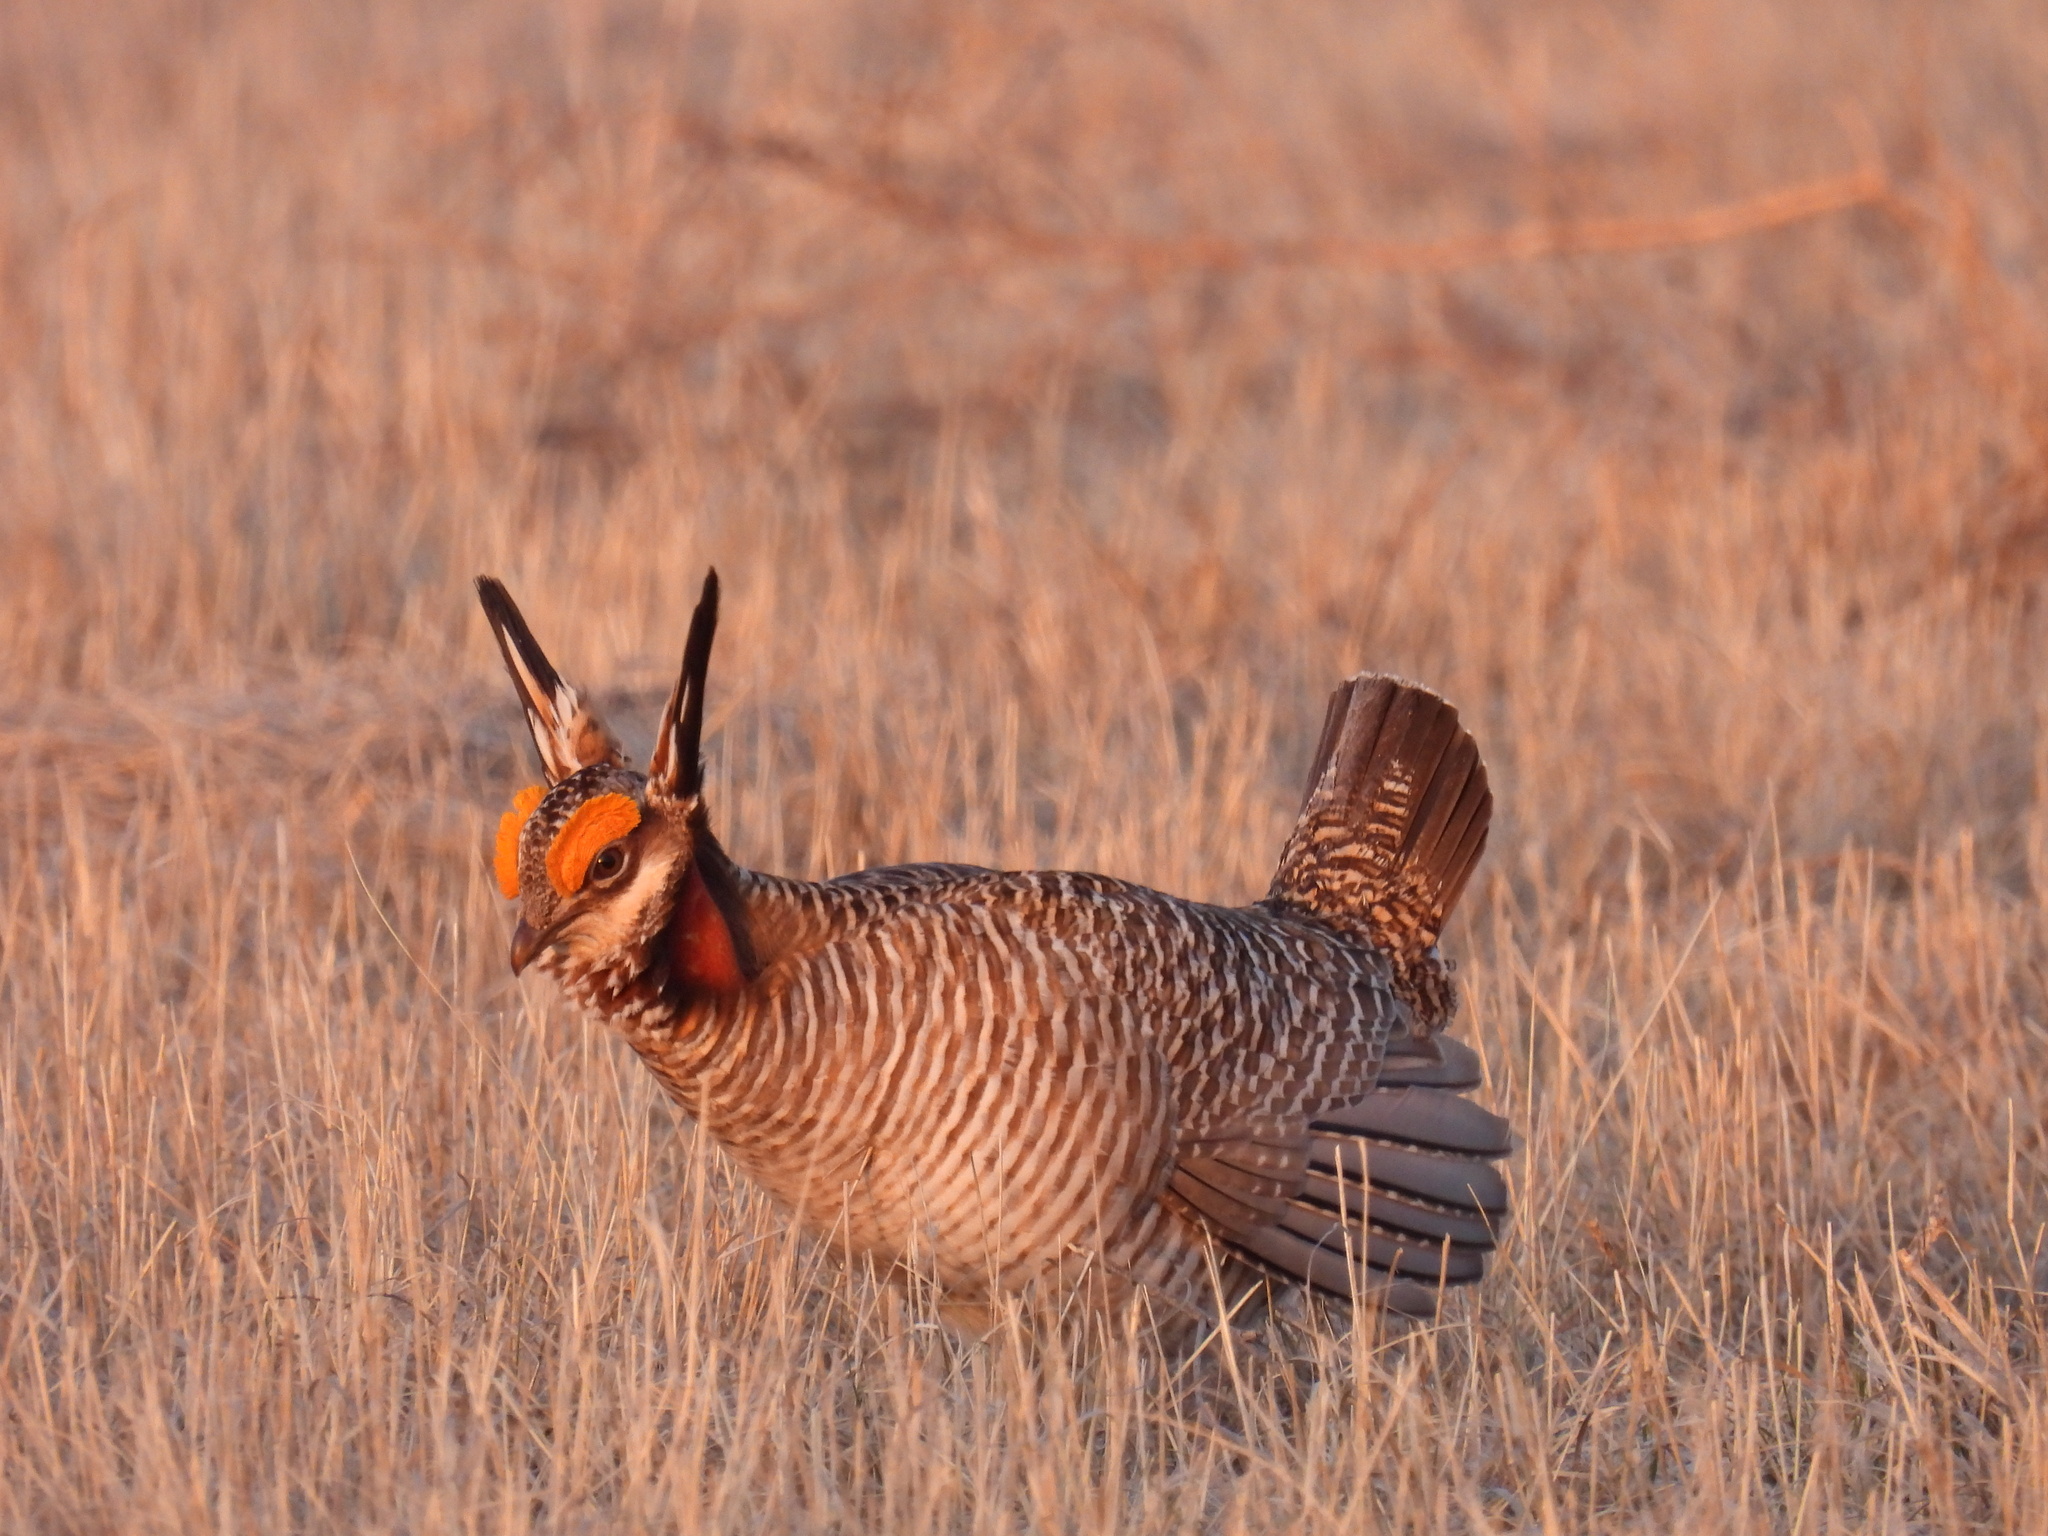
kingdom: Animalia
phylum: Chordata
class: Aves
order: Galliformes
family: Phasianidae
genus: Tympanuchus
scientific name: Tympanuchus pallidicinctus
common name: Lesser prairie chicken
